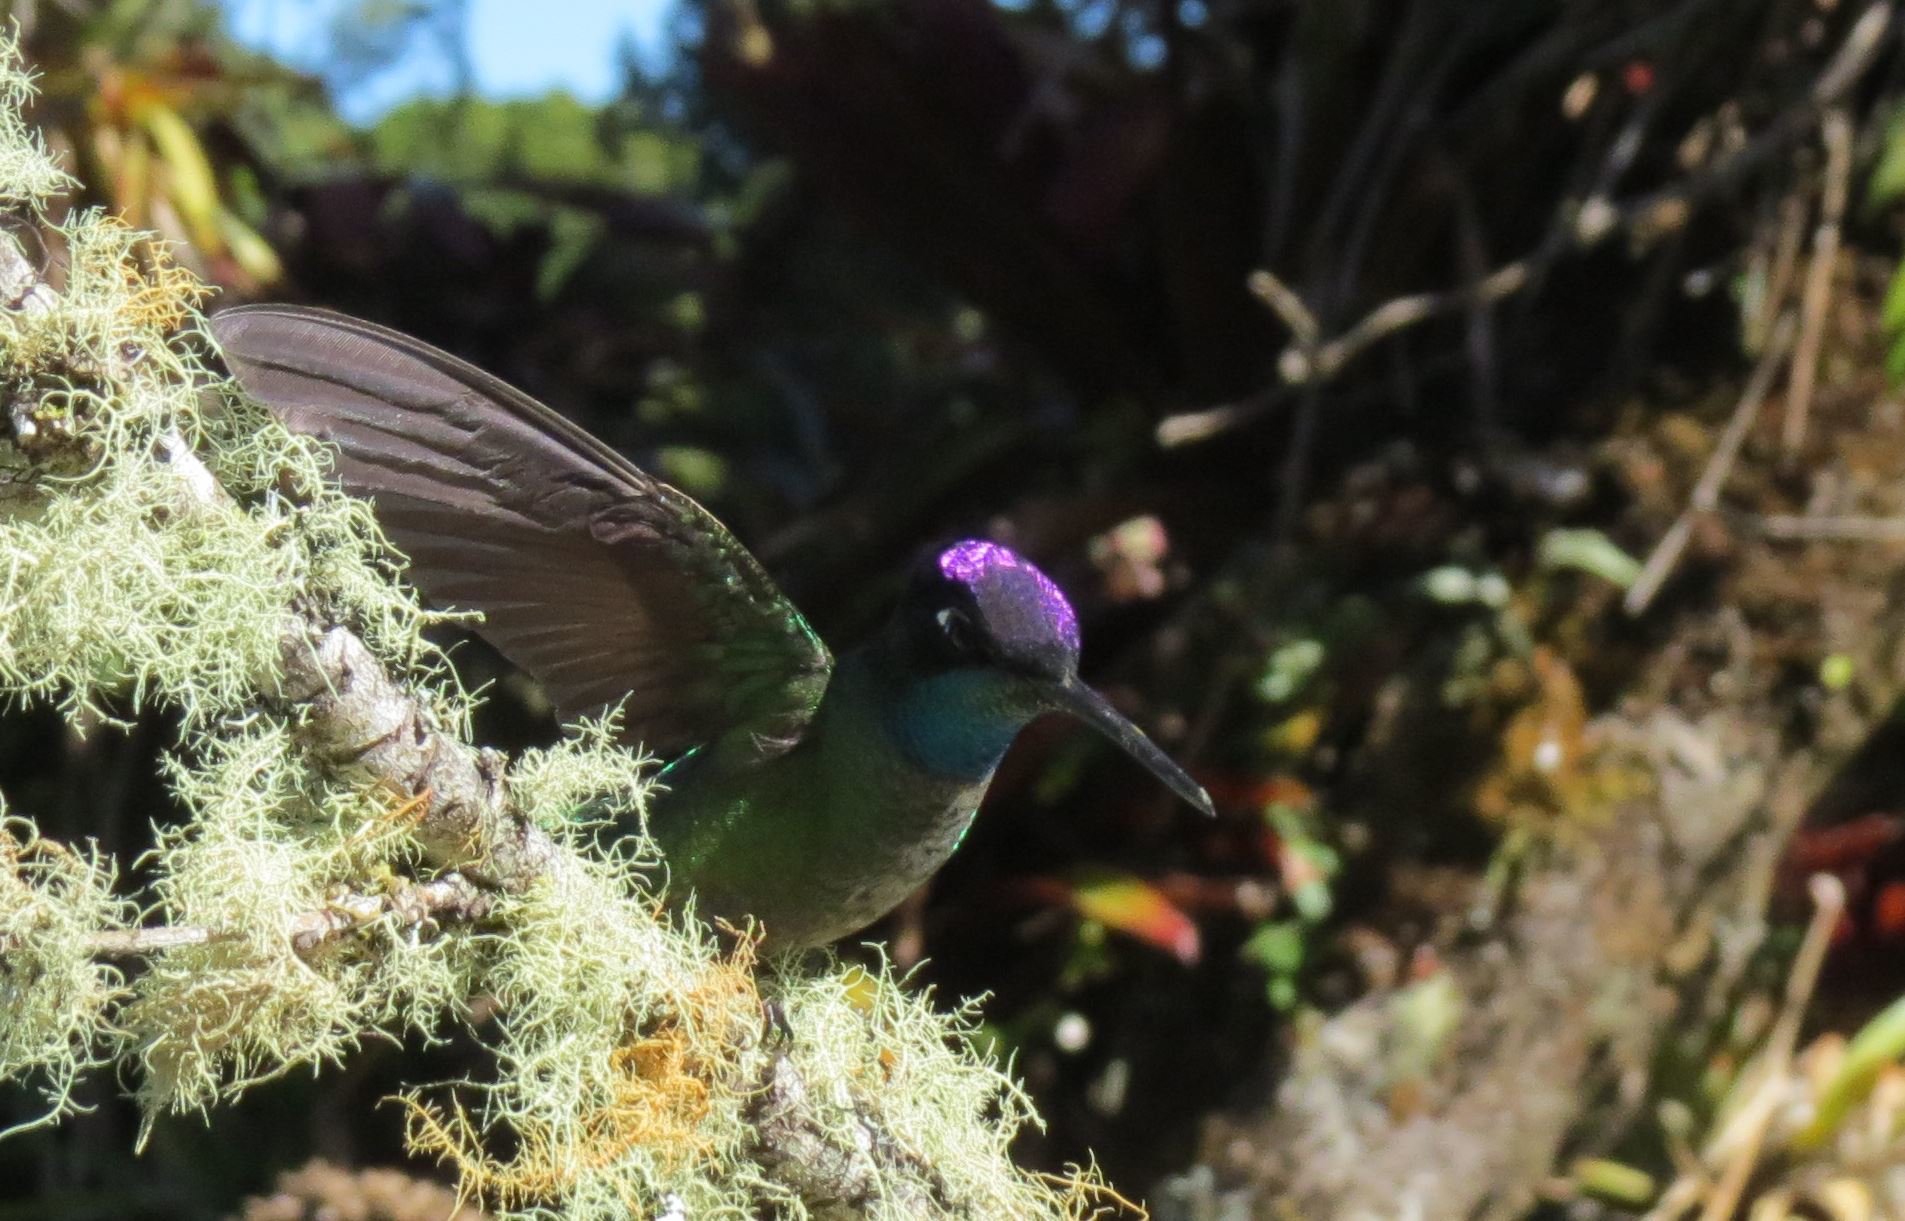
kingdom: Animalia
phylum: Chordata
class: Aves
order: Apodiformes
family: Trochilidae
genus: Eugenes
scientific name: Eugenes spectabilis
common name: Talamanca hummingbird
